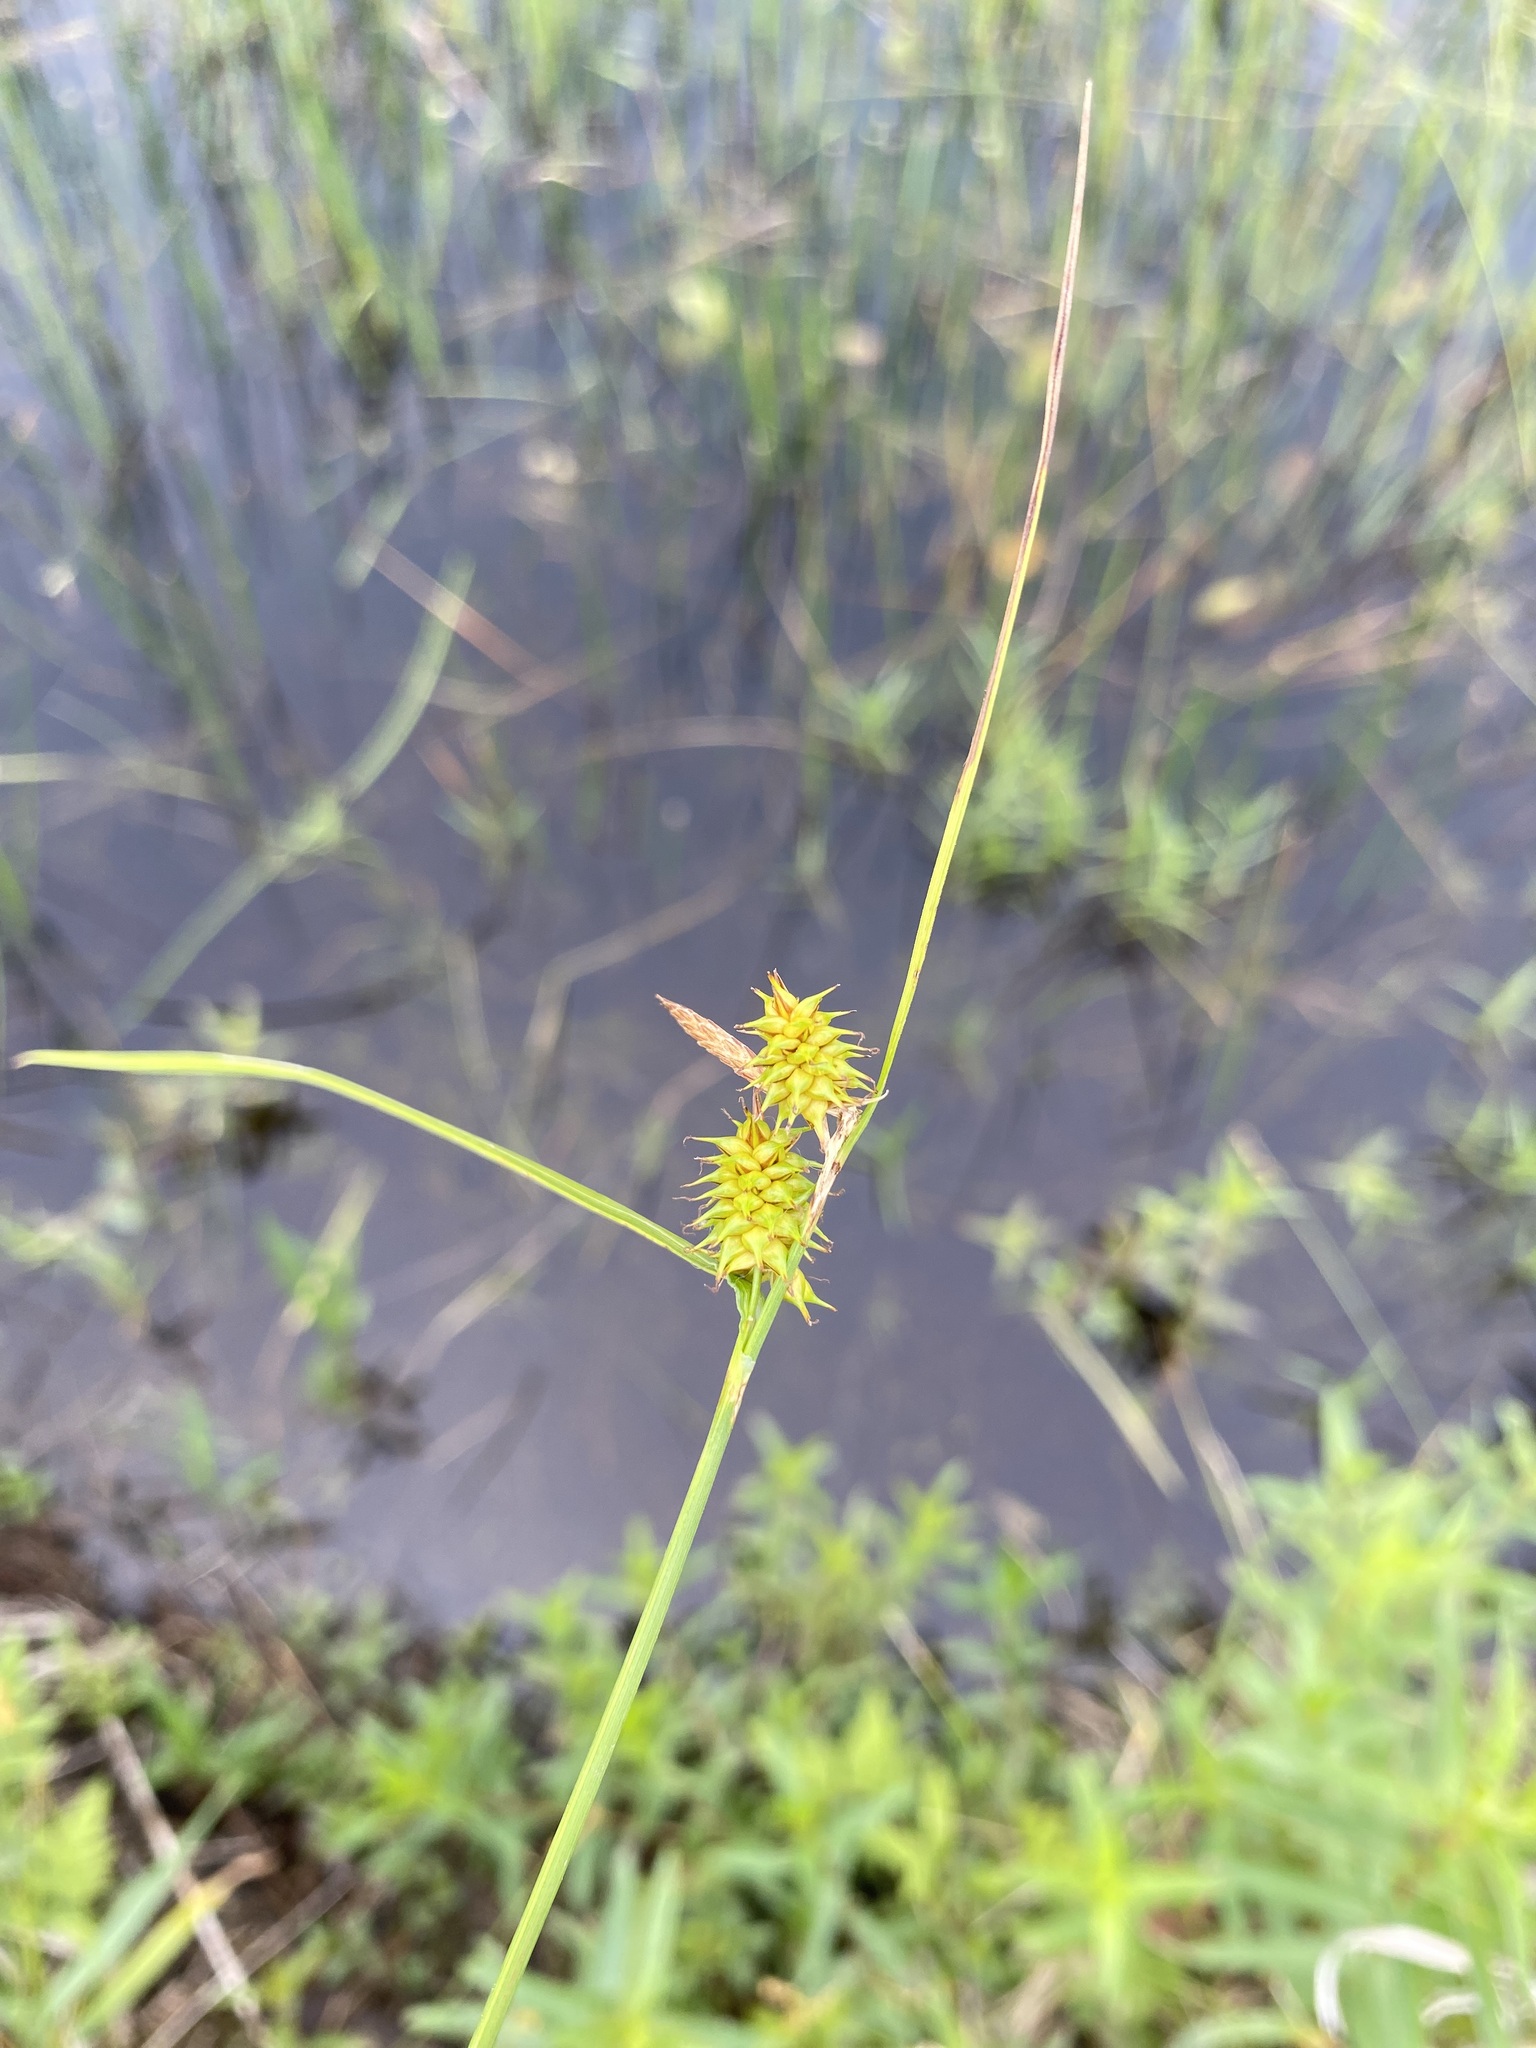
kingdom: Plantae
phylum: Tracheophyta
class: Liliopsida
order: Poales
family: Cyperaceae
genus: Carex
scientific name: Carex flava
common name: Large yellow-sedge
